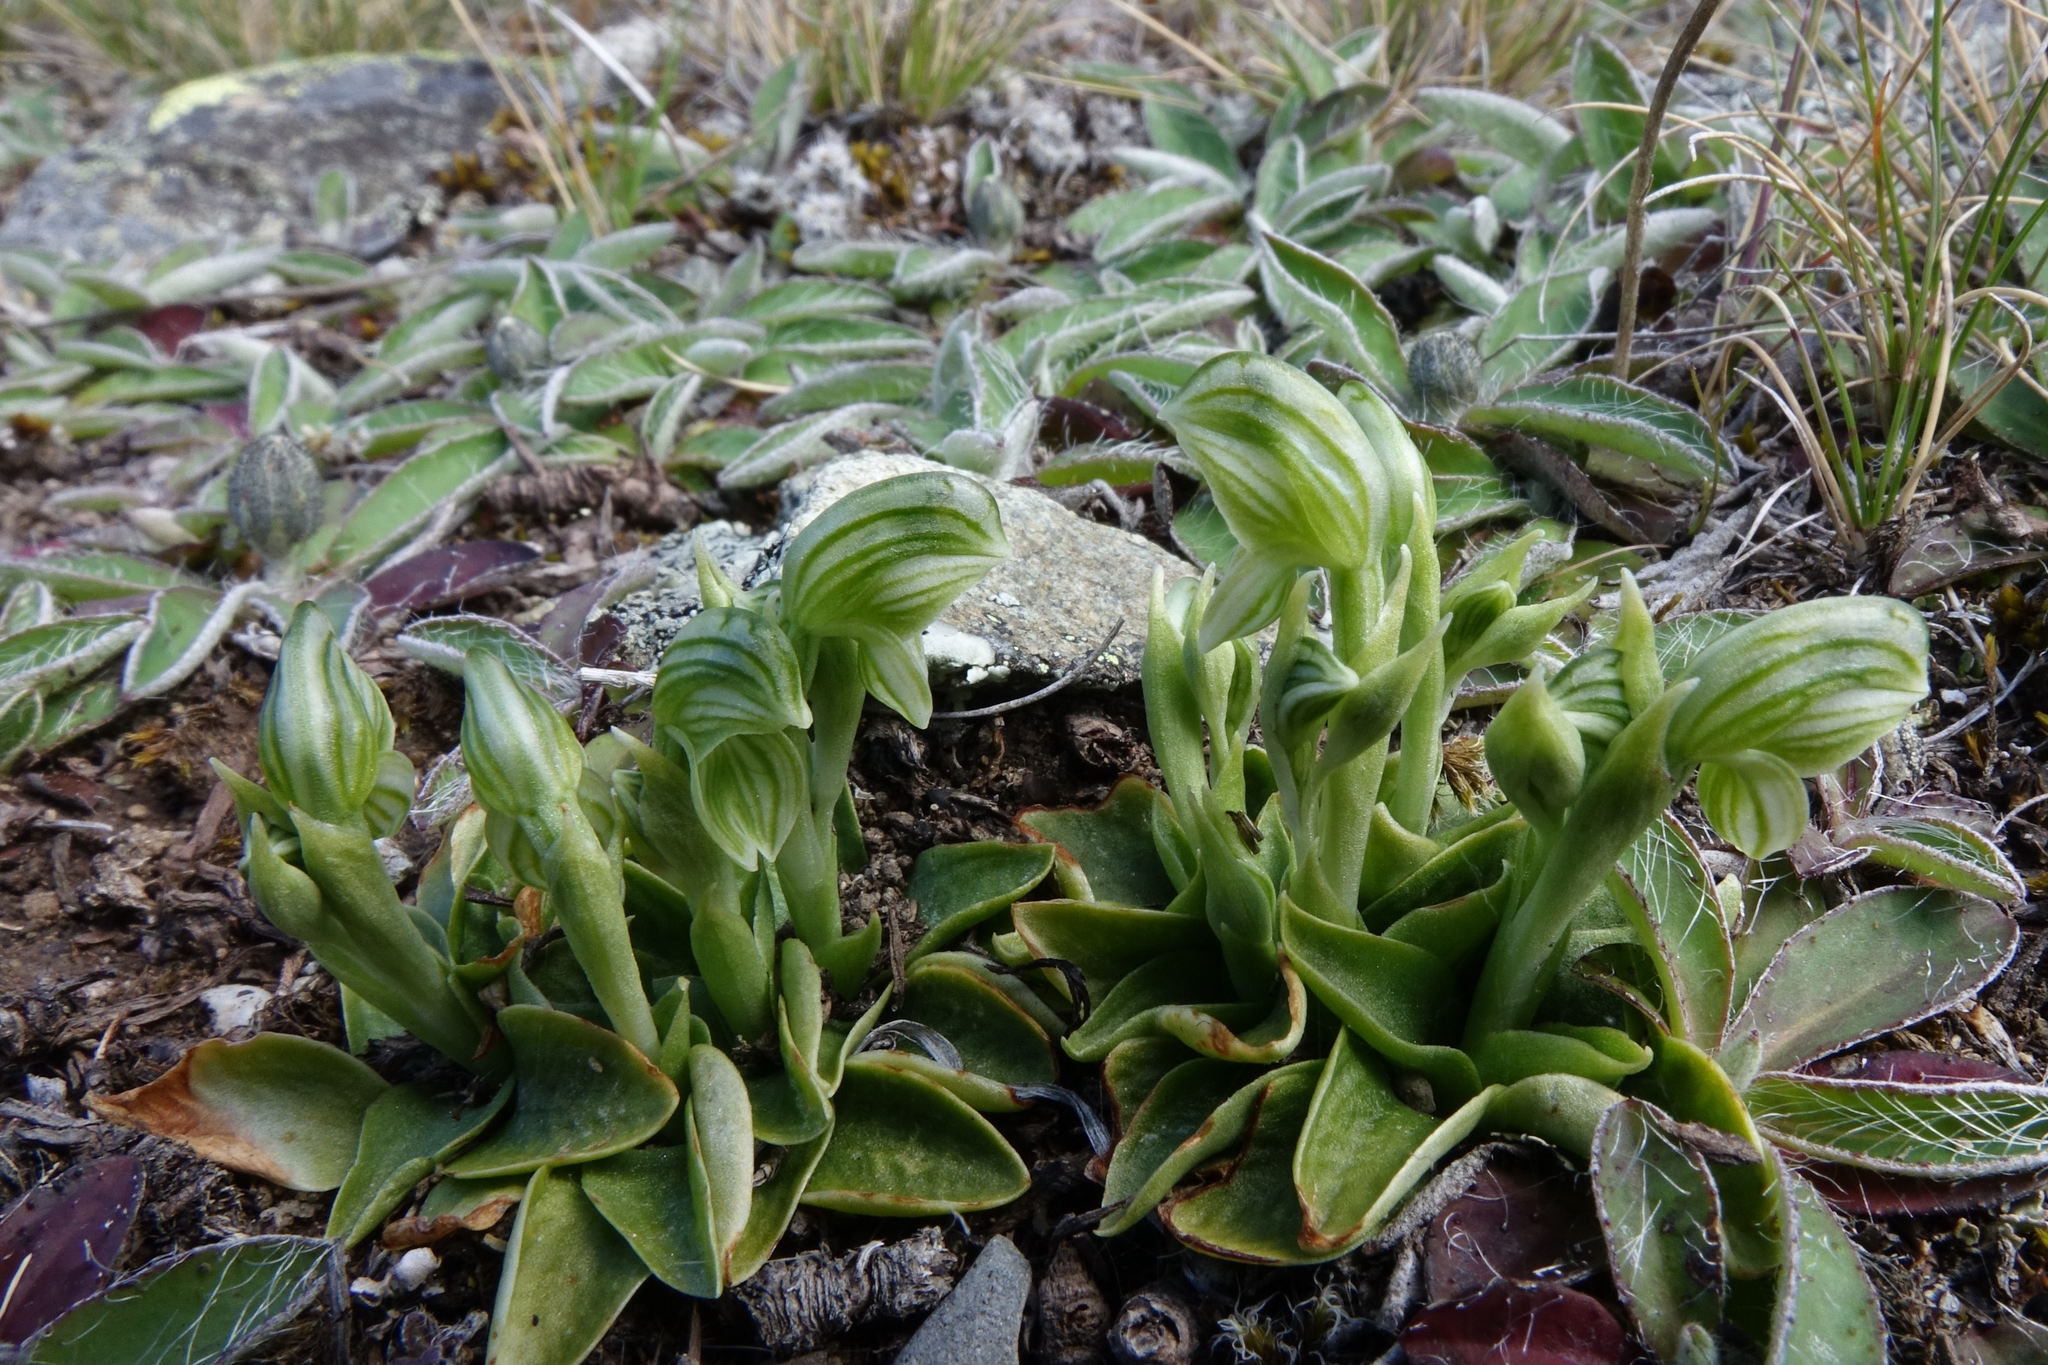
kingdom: Plantae
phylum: Tracheophyta
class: Liliopsida
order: Asparagales
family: Orchidaceae
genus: Pterostylis
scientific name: Pterostylis tanypoda
